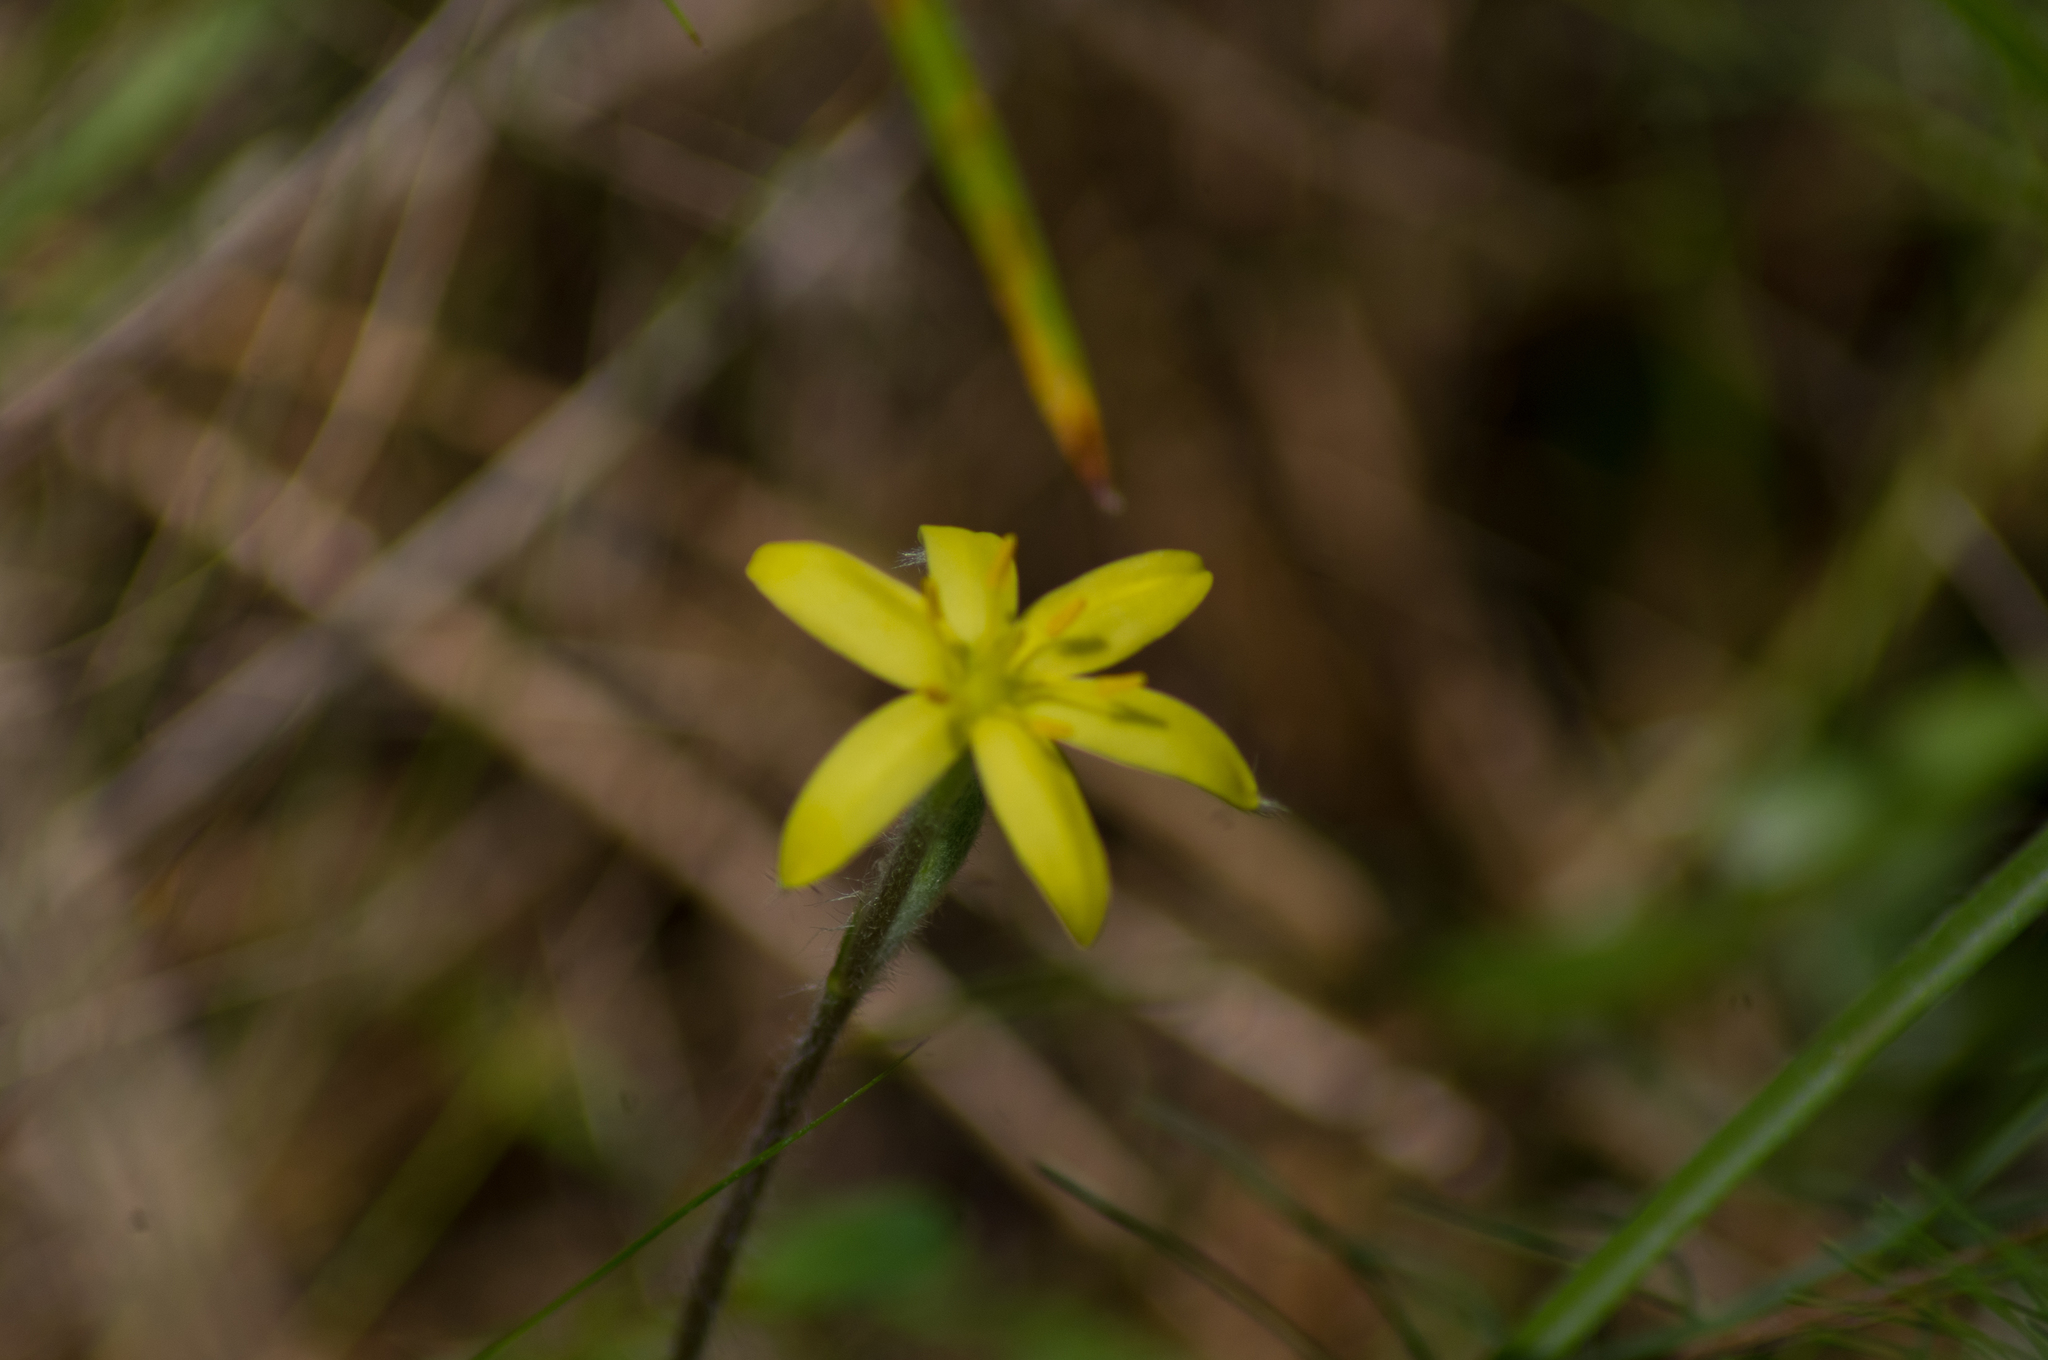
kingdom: Plantae
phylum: Tracheophyta
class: Liliopsida
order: Asparagales
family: Hypoxidaceae
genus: Hypoxis
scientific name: Hypoxis hirsuta
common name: Common goldstar
